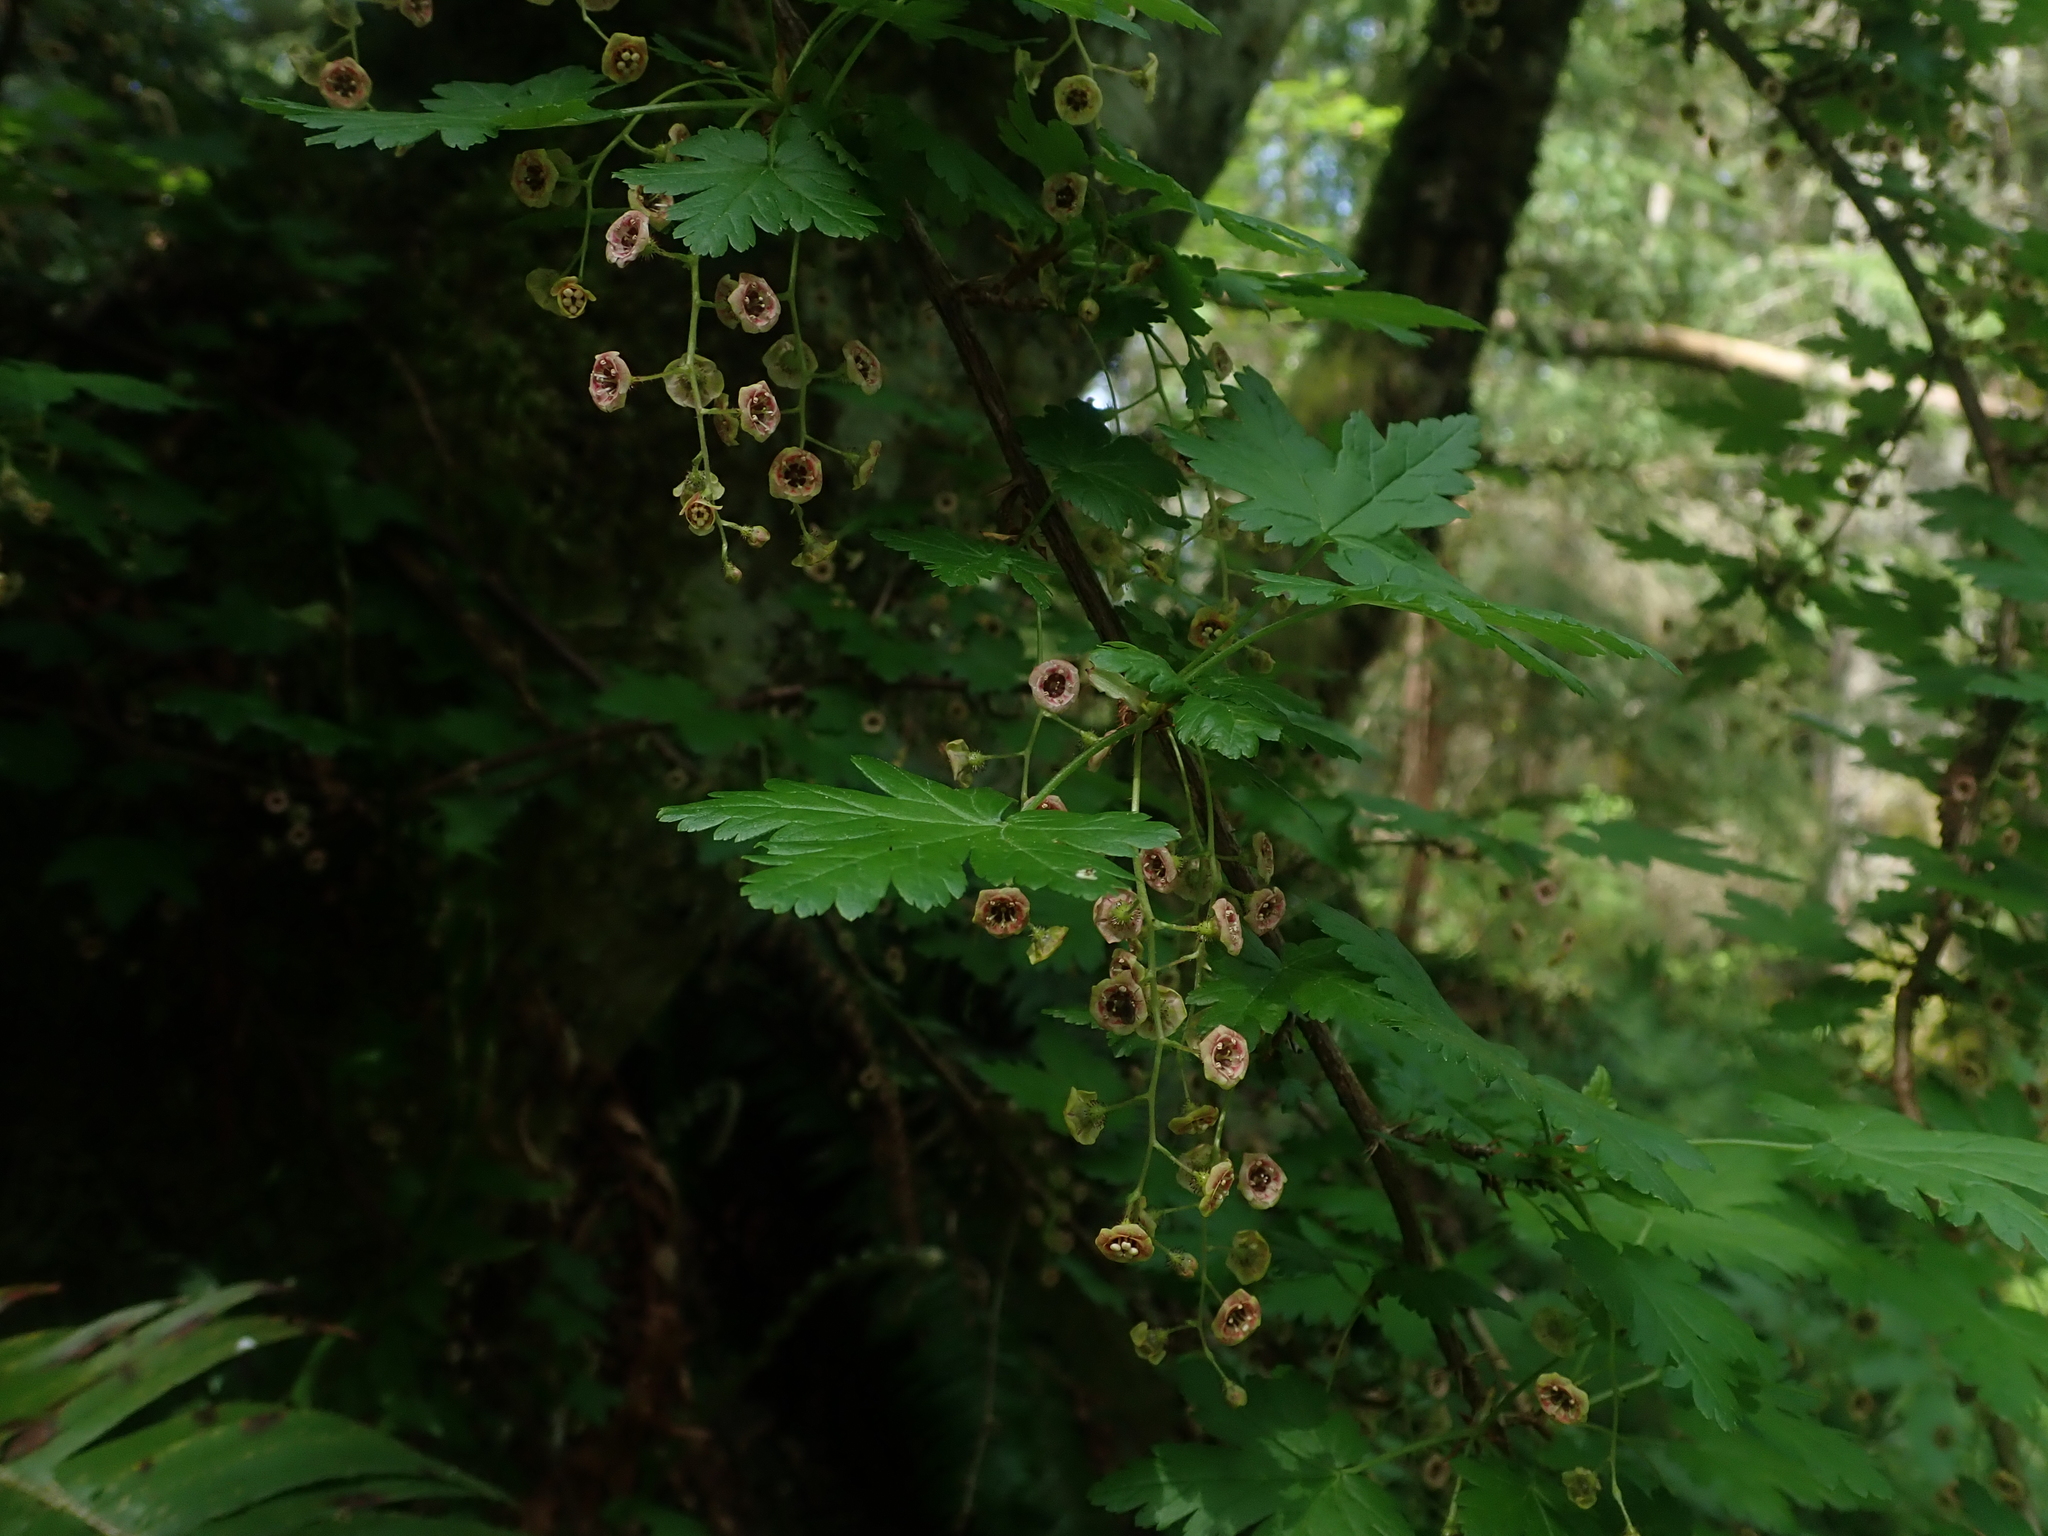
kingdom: Plantae
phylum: Tracheophyta
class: Magnoliopsida
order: Saxifragales
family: Grossulariaceae
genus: Ribes
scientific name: Ribes lacustre
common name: Black gooseberry
